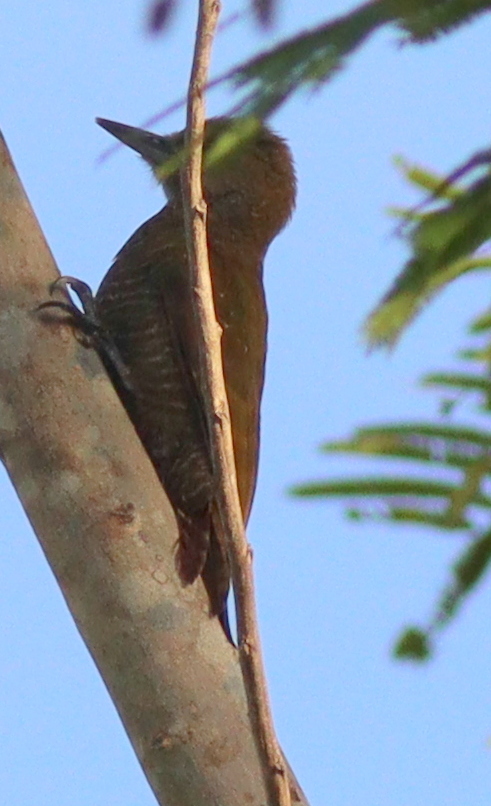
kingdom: Animalia
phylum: Chordata
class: Aves
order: Piciformes
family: Picidae
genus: Veniliornis
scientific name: Veniliornis passerinus
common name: Little woodpecker
